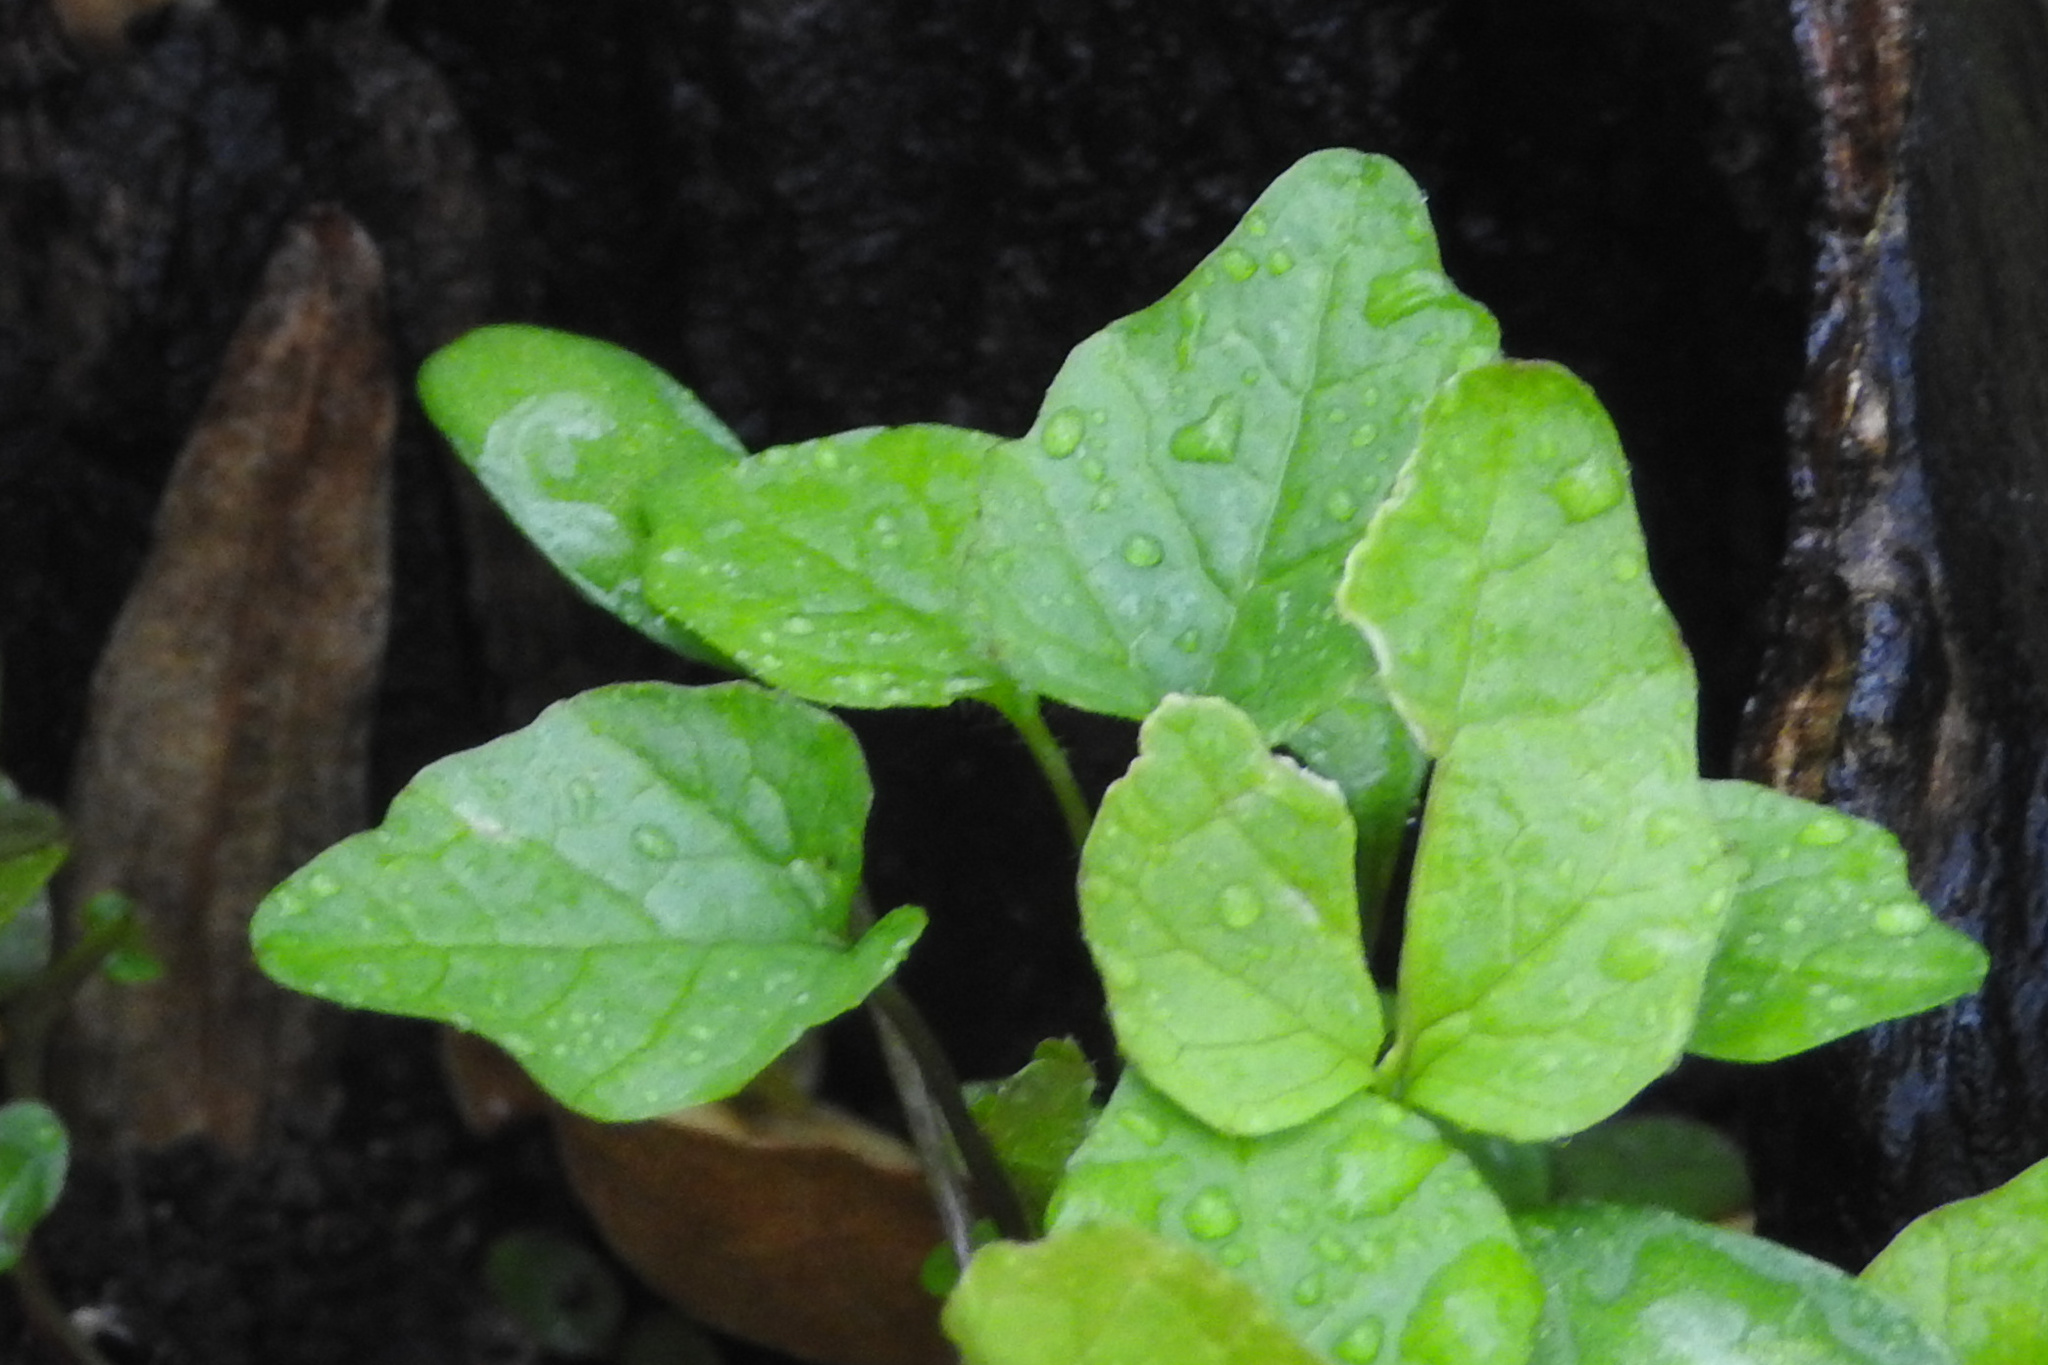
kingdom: Plantae
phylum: Tracheophyta
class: Magnoliopsida
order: Brassicales
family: Brassicaceae
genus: Alliaria
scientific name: Alliaria petiolata
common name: Garlic mustard
